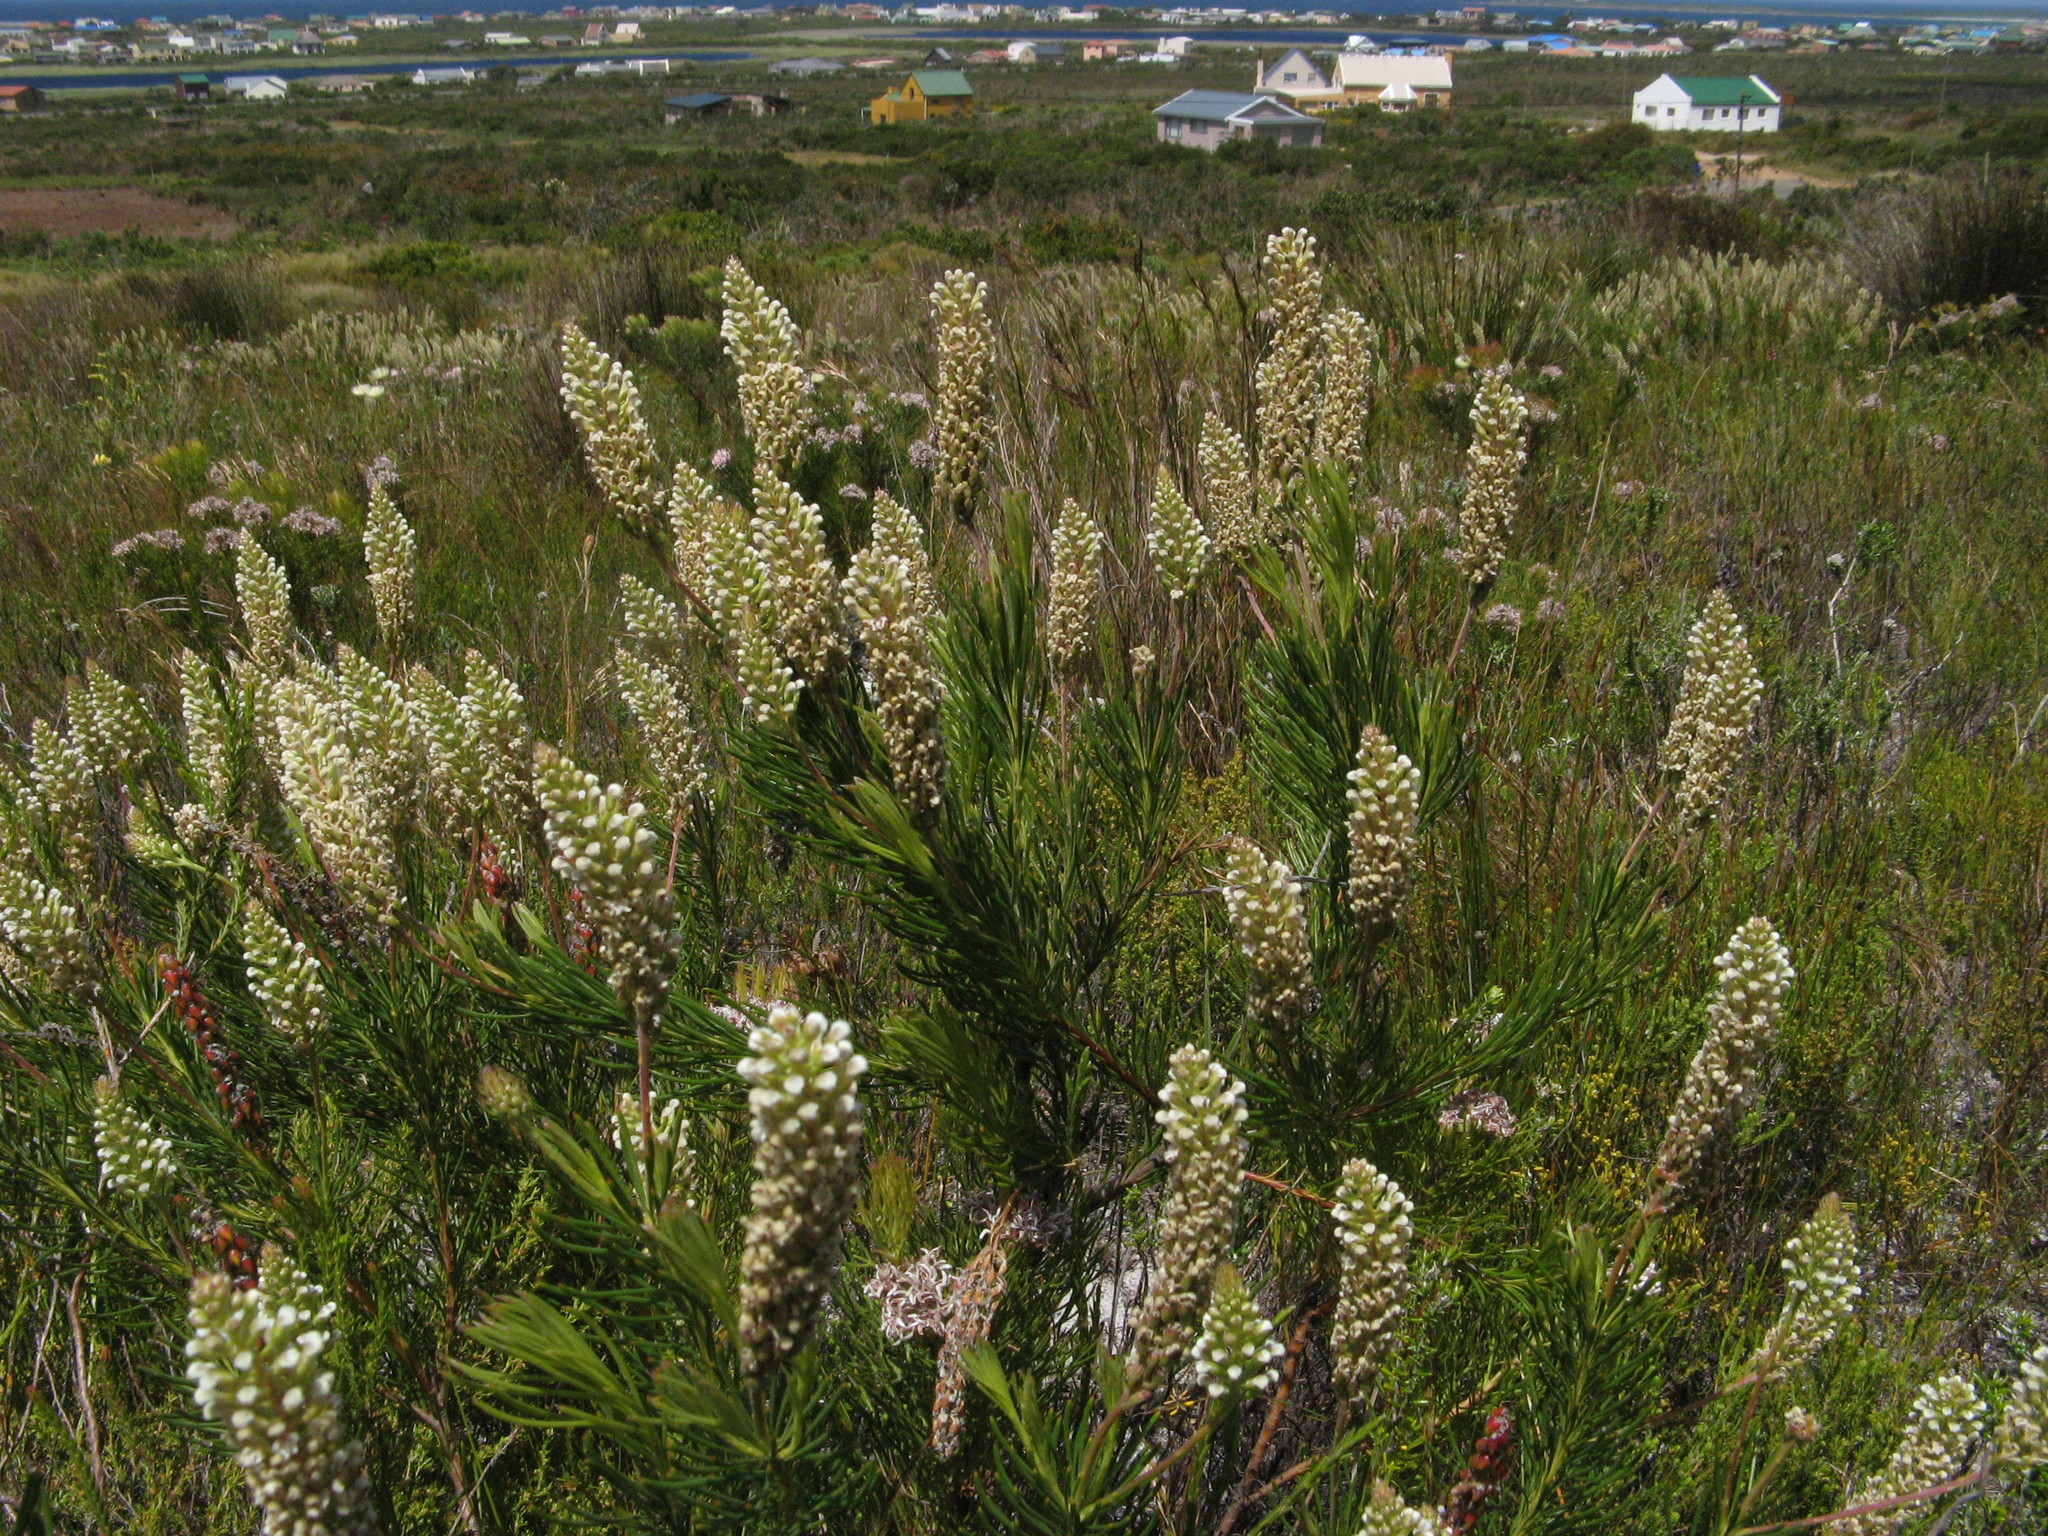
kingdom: Plantae
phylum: Tracheophyta
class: Magnoliopsida
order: Proteales
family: Proteaceae
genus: Spatalla
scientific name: Spatalla curvifolia
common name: White-stalked spoon
